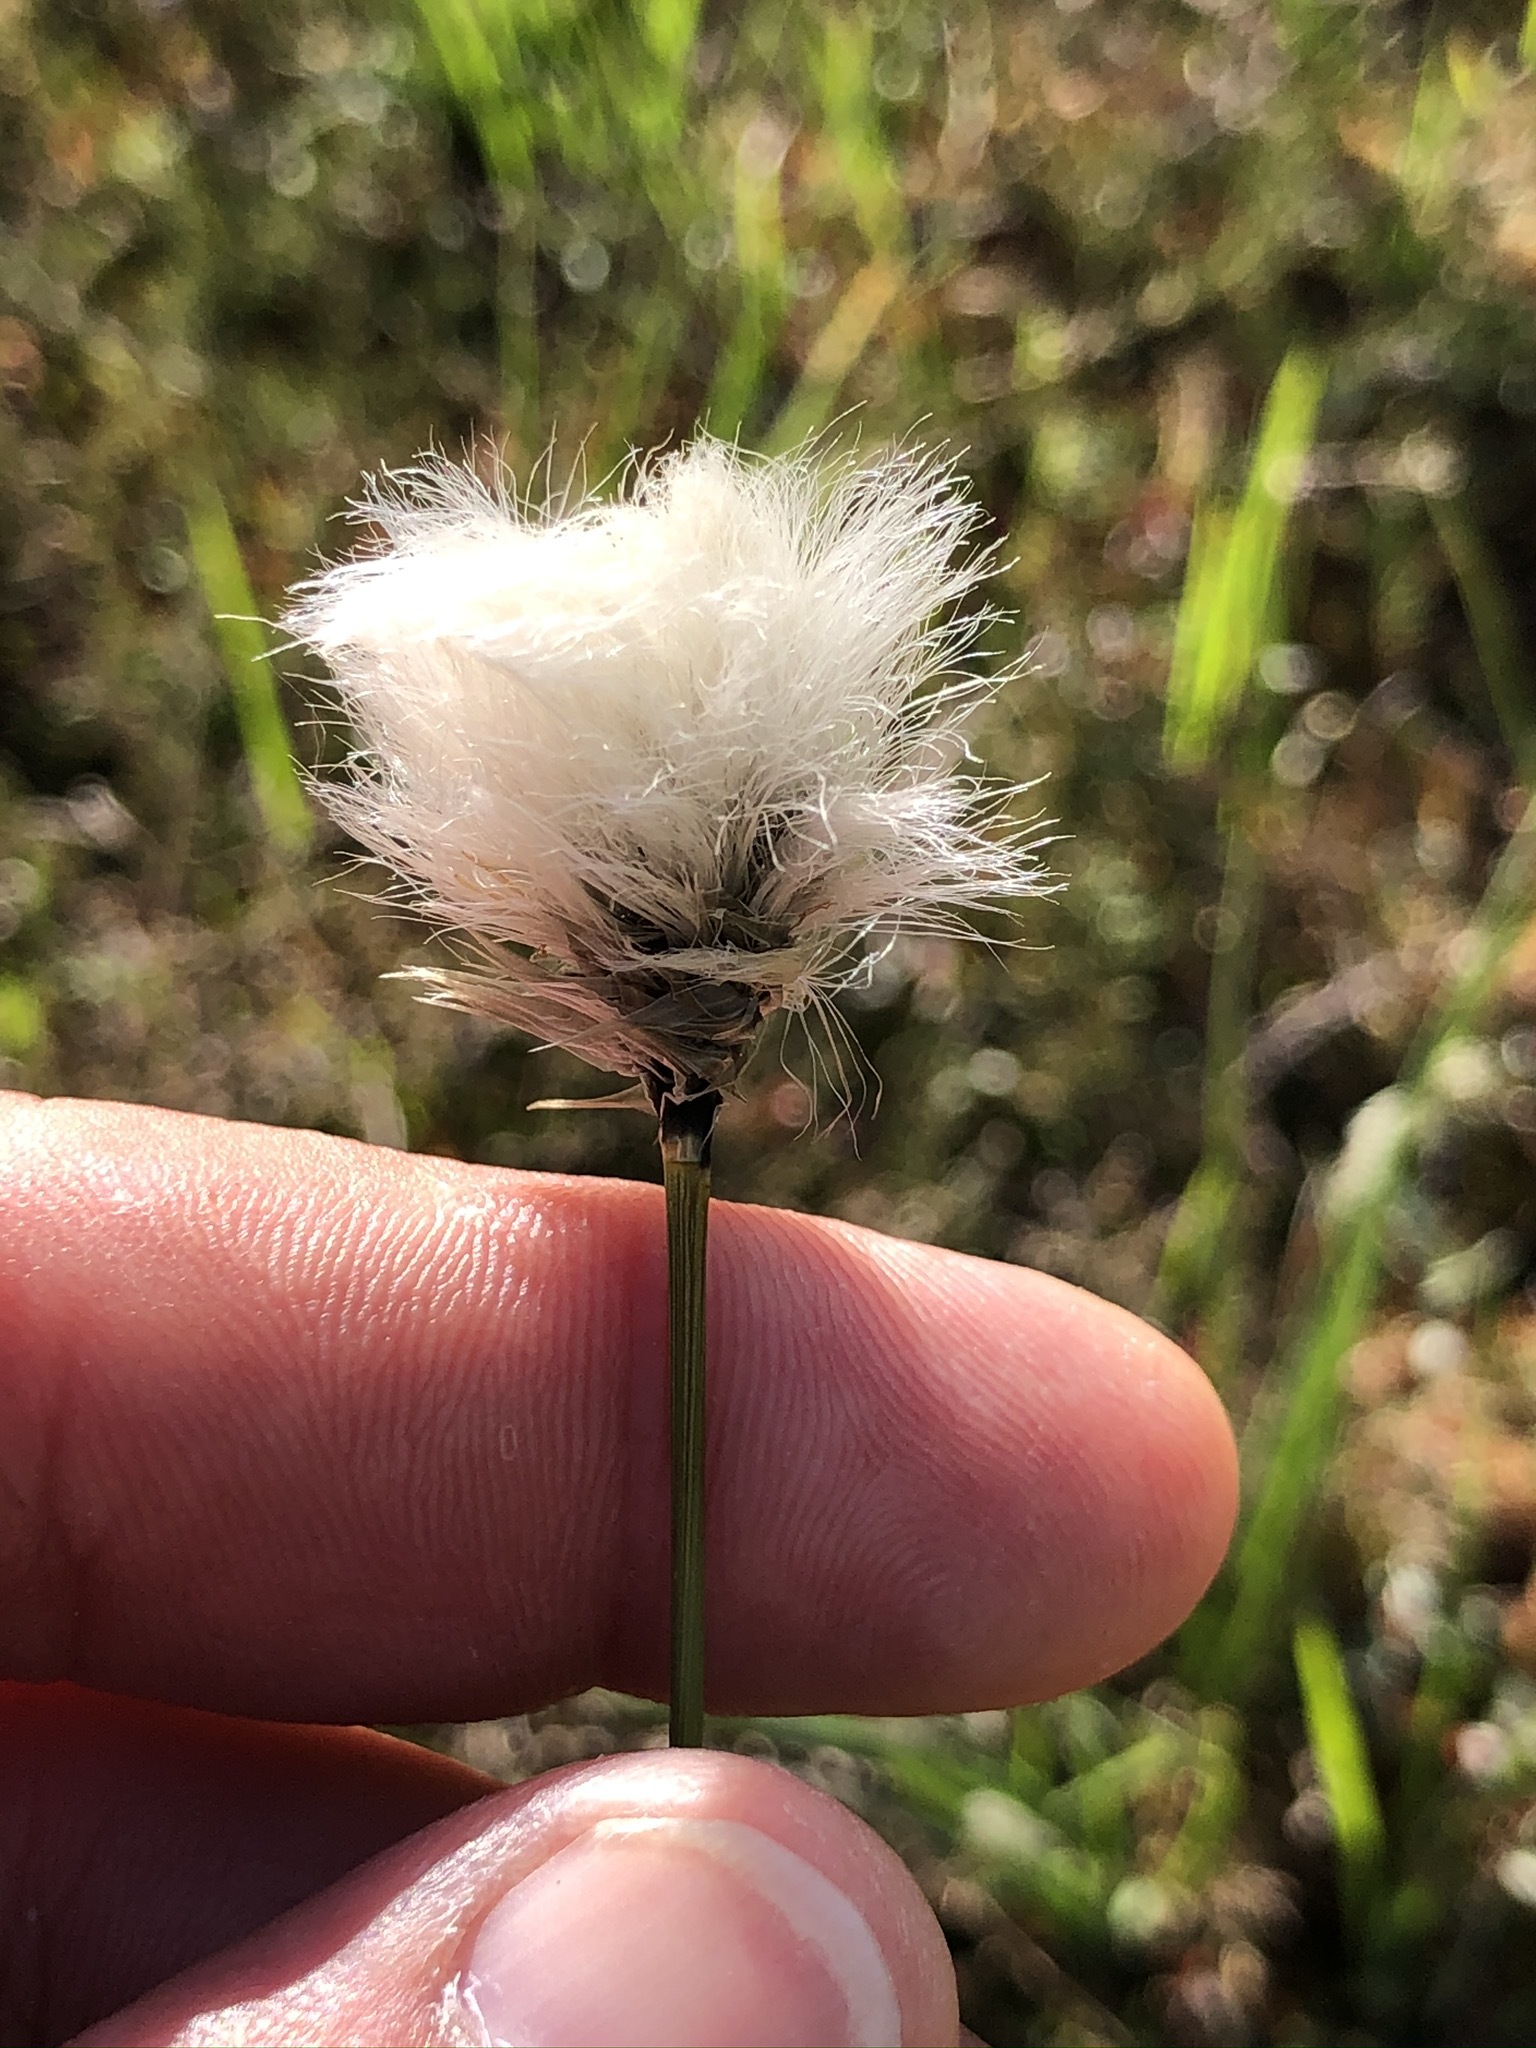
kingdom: Plantae
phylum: Tracheophyta
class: Liliopsida
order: Poales
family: Cyperaceae
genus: Eriophorum
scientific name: Eriophorum vaginatum
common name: Hare's-tail cottongrass
